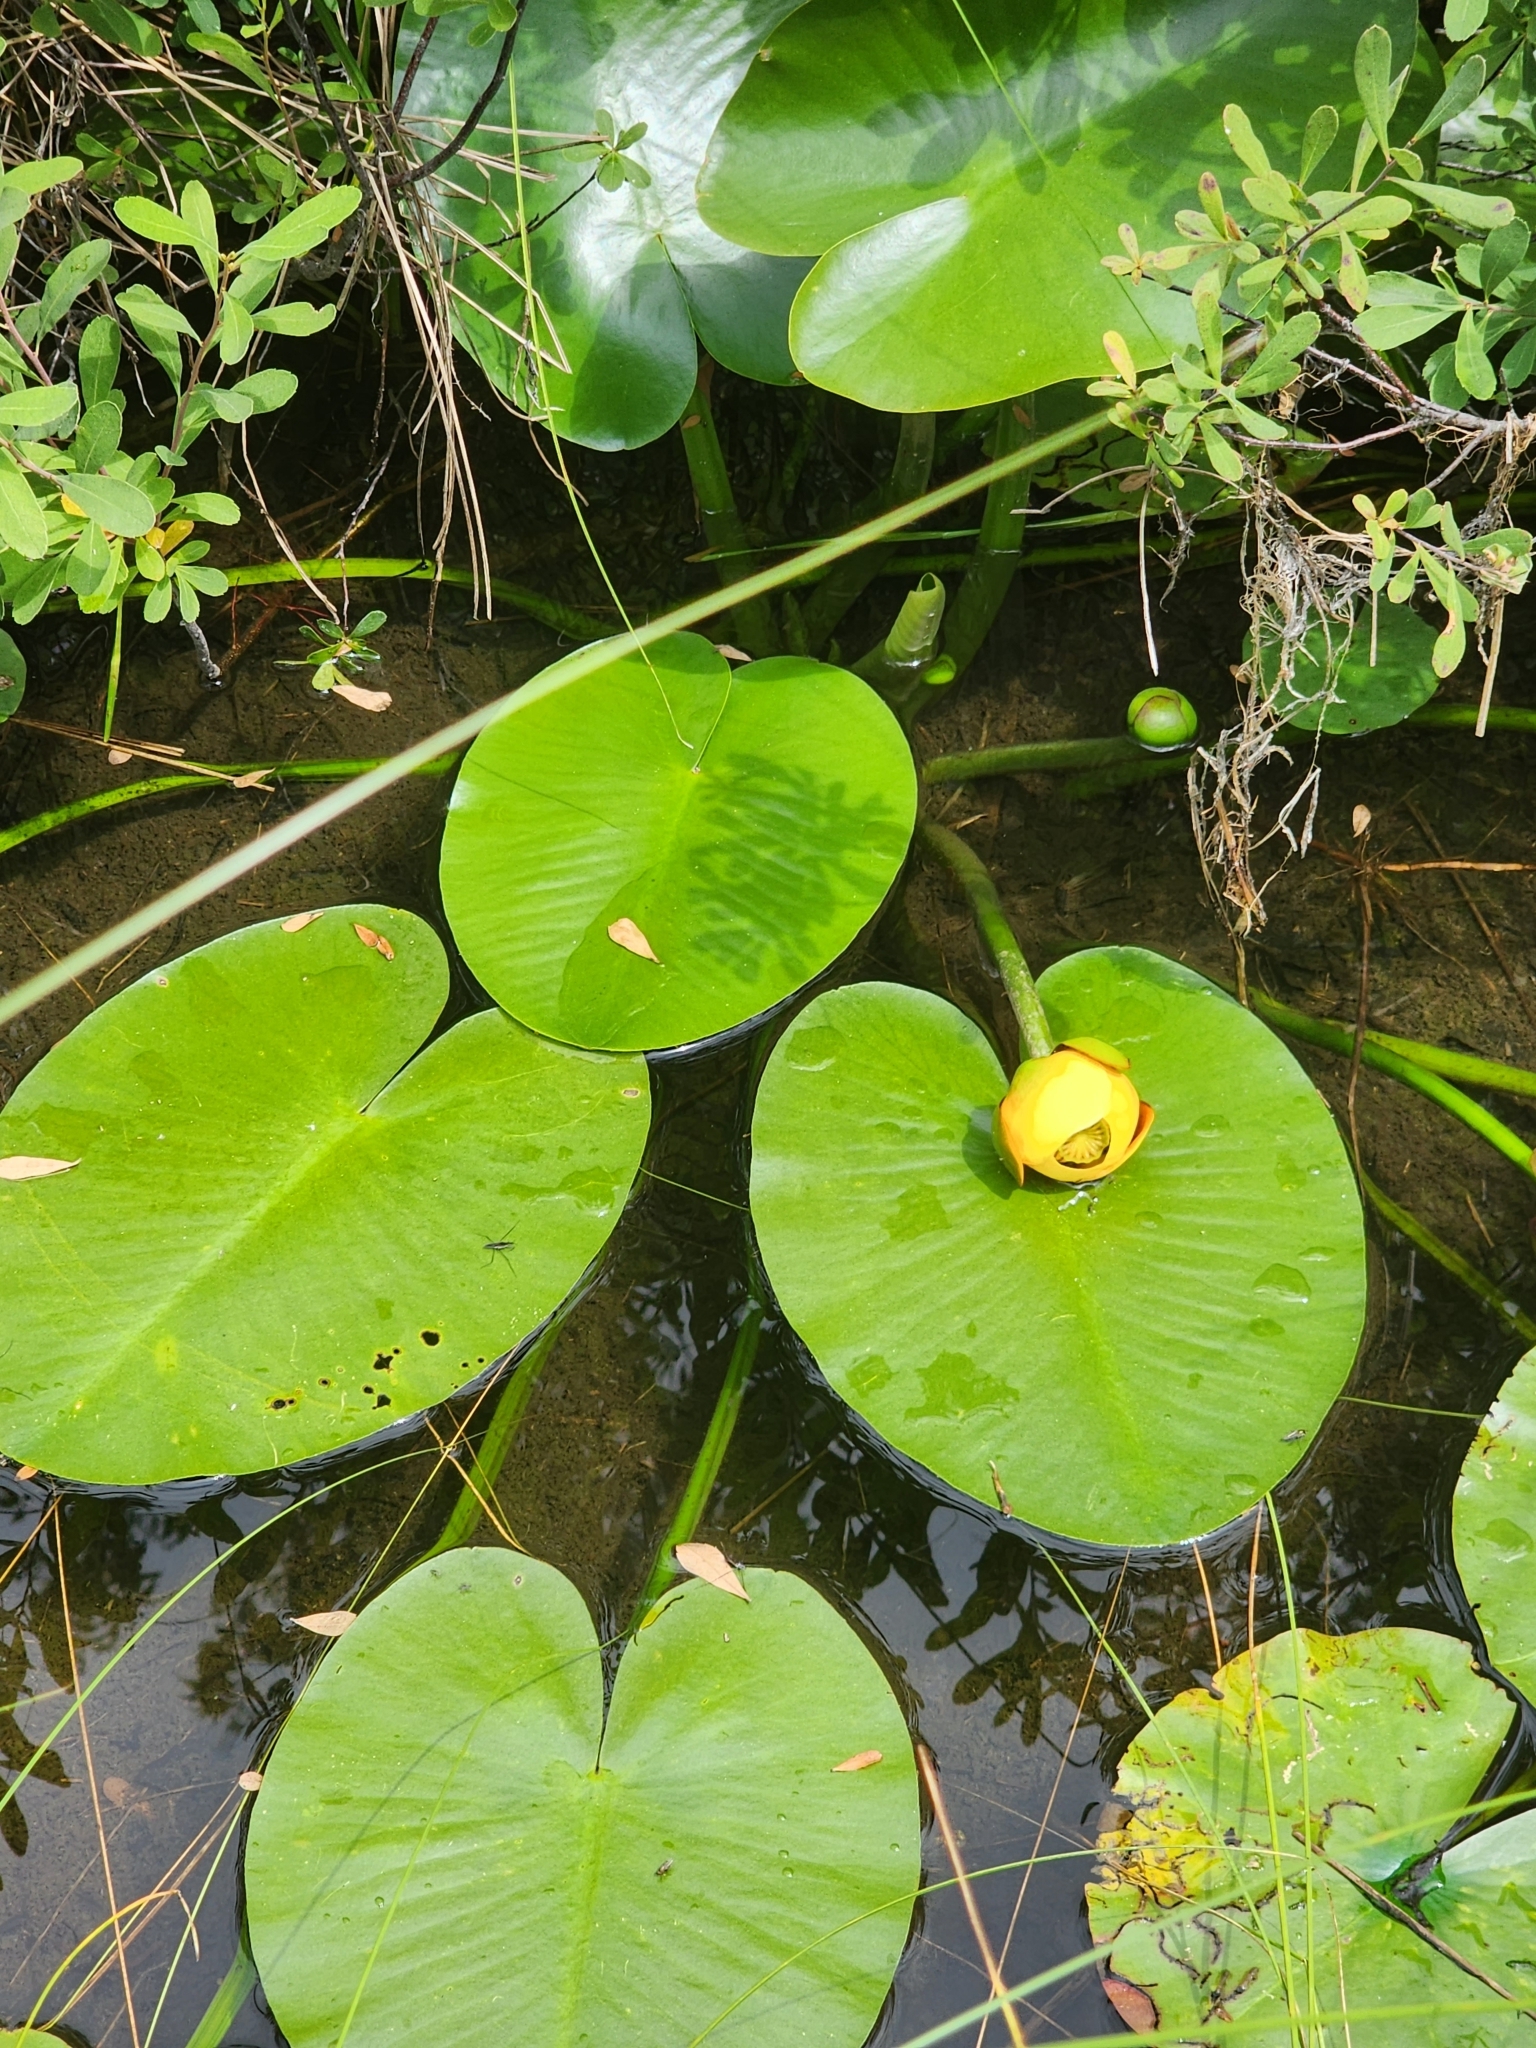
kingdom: Plantae
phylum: Tracheophyta
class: Magnoliopsida
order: Nymphaeales
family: Nymphaeaceae
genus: Nuphar
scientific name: Nuphar variegata
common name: Beaver-root
